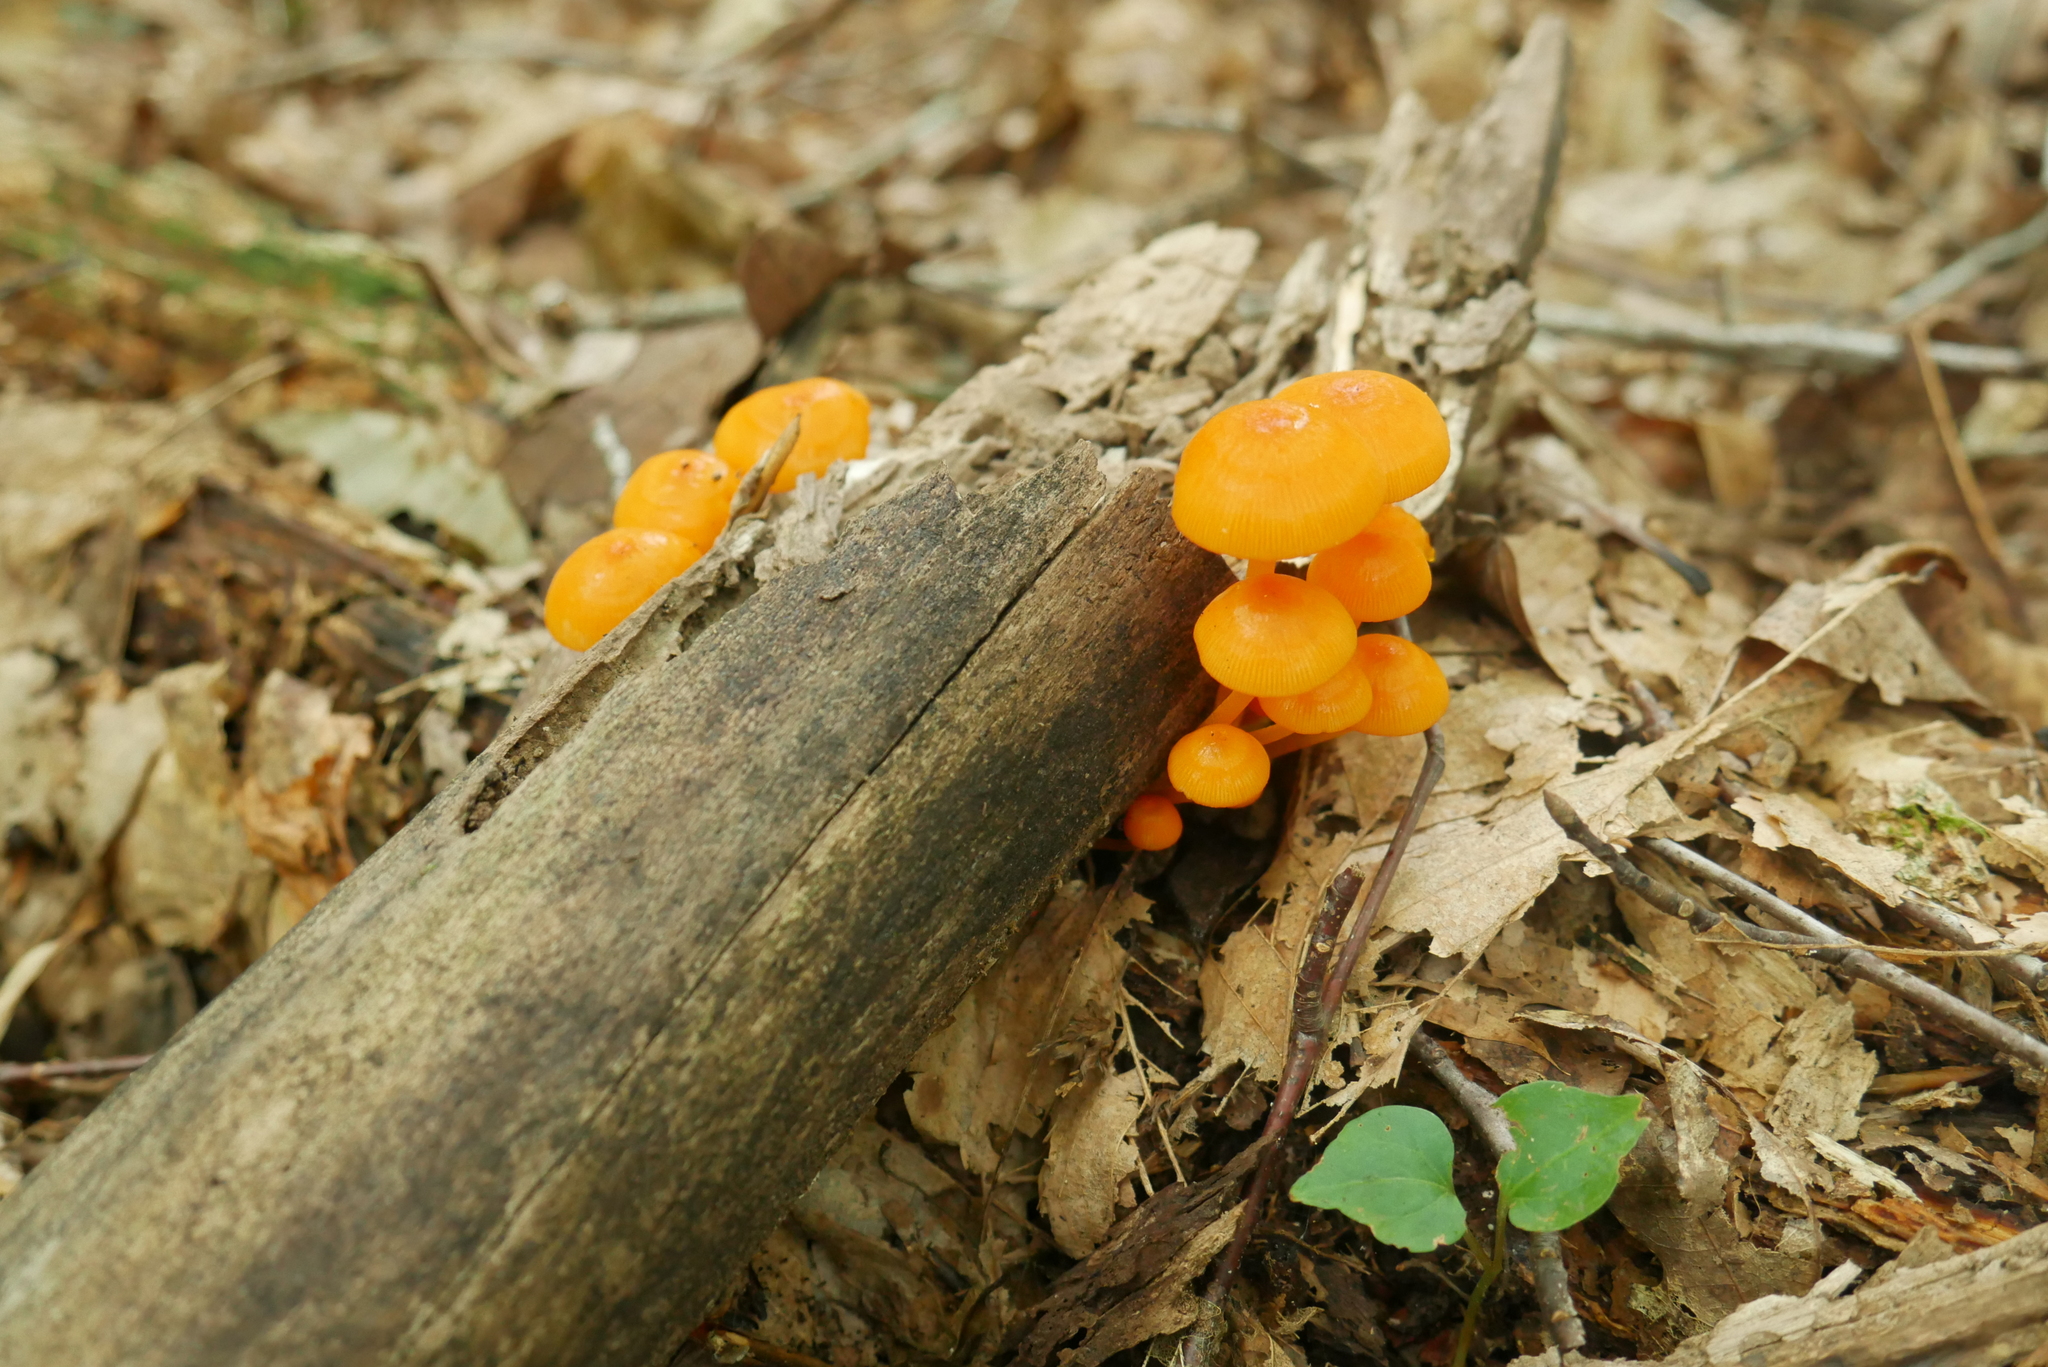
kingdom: Fungi
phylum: Basidiomycota
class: Agaricomycetes
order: Agaricales
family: Mycenaceae
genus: Mycena
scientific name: Mycena leaiana
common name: Orange mycena
